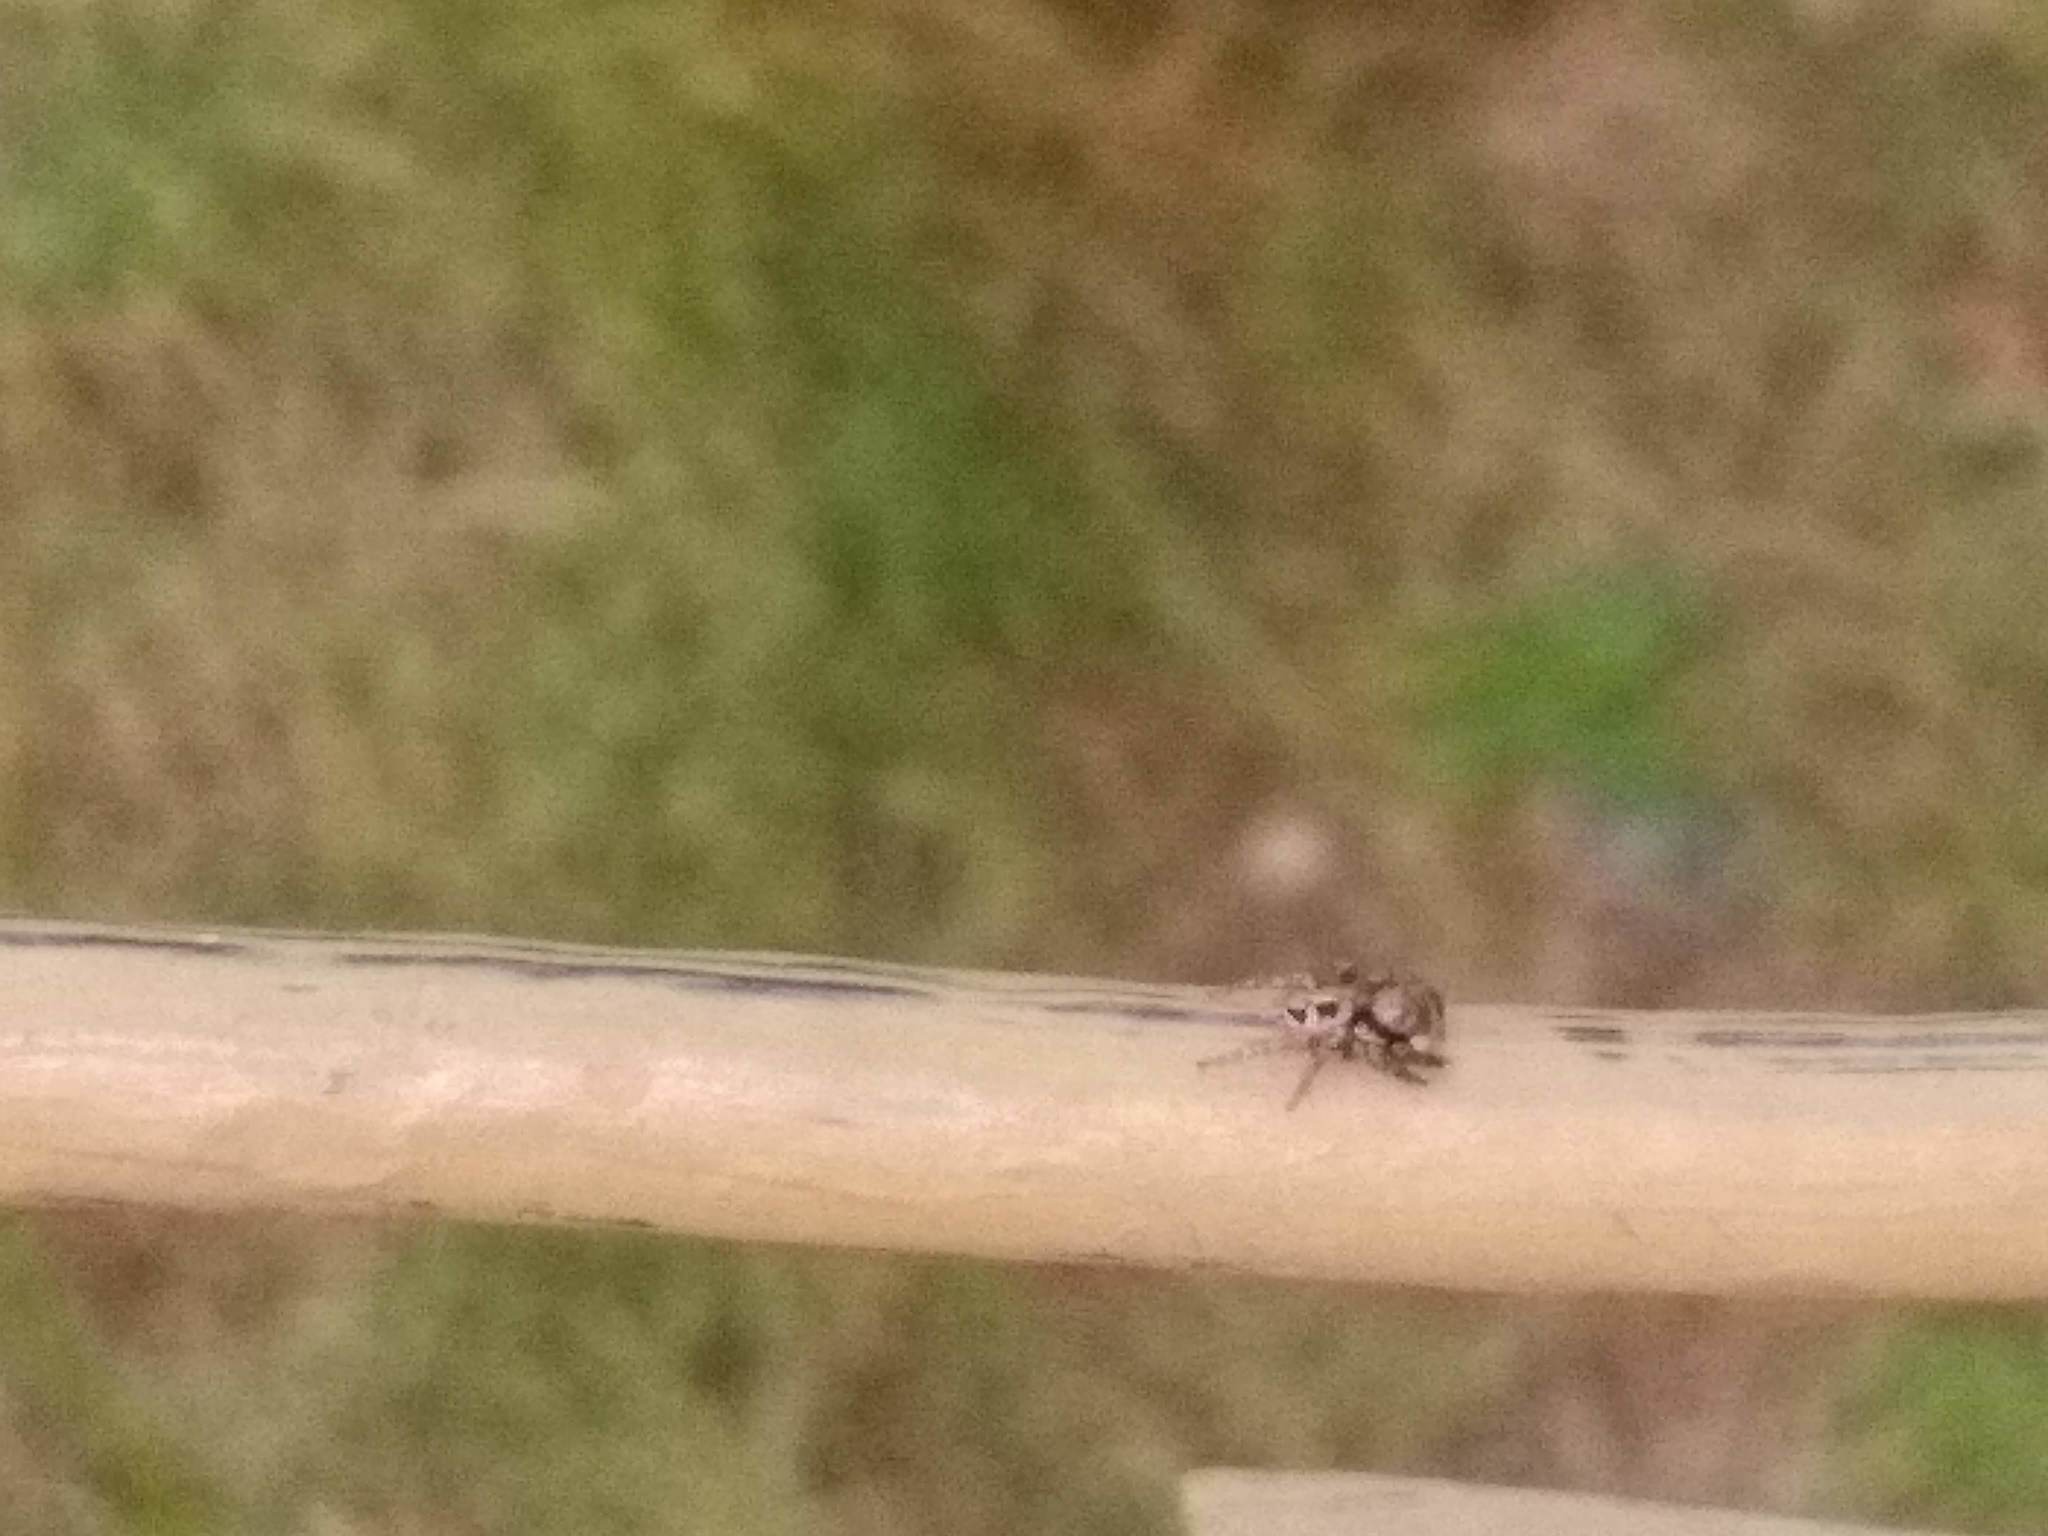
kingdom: Animalia
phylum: Arthropoda
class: Arachnida
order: Araneae
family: Salticidae
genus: Anasaitis
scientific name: Anasaitis canosa
